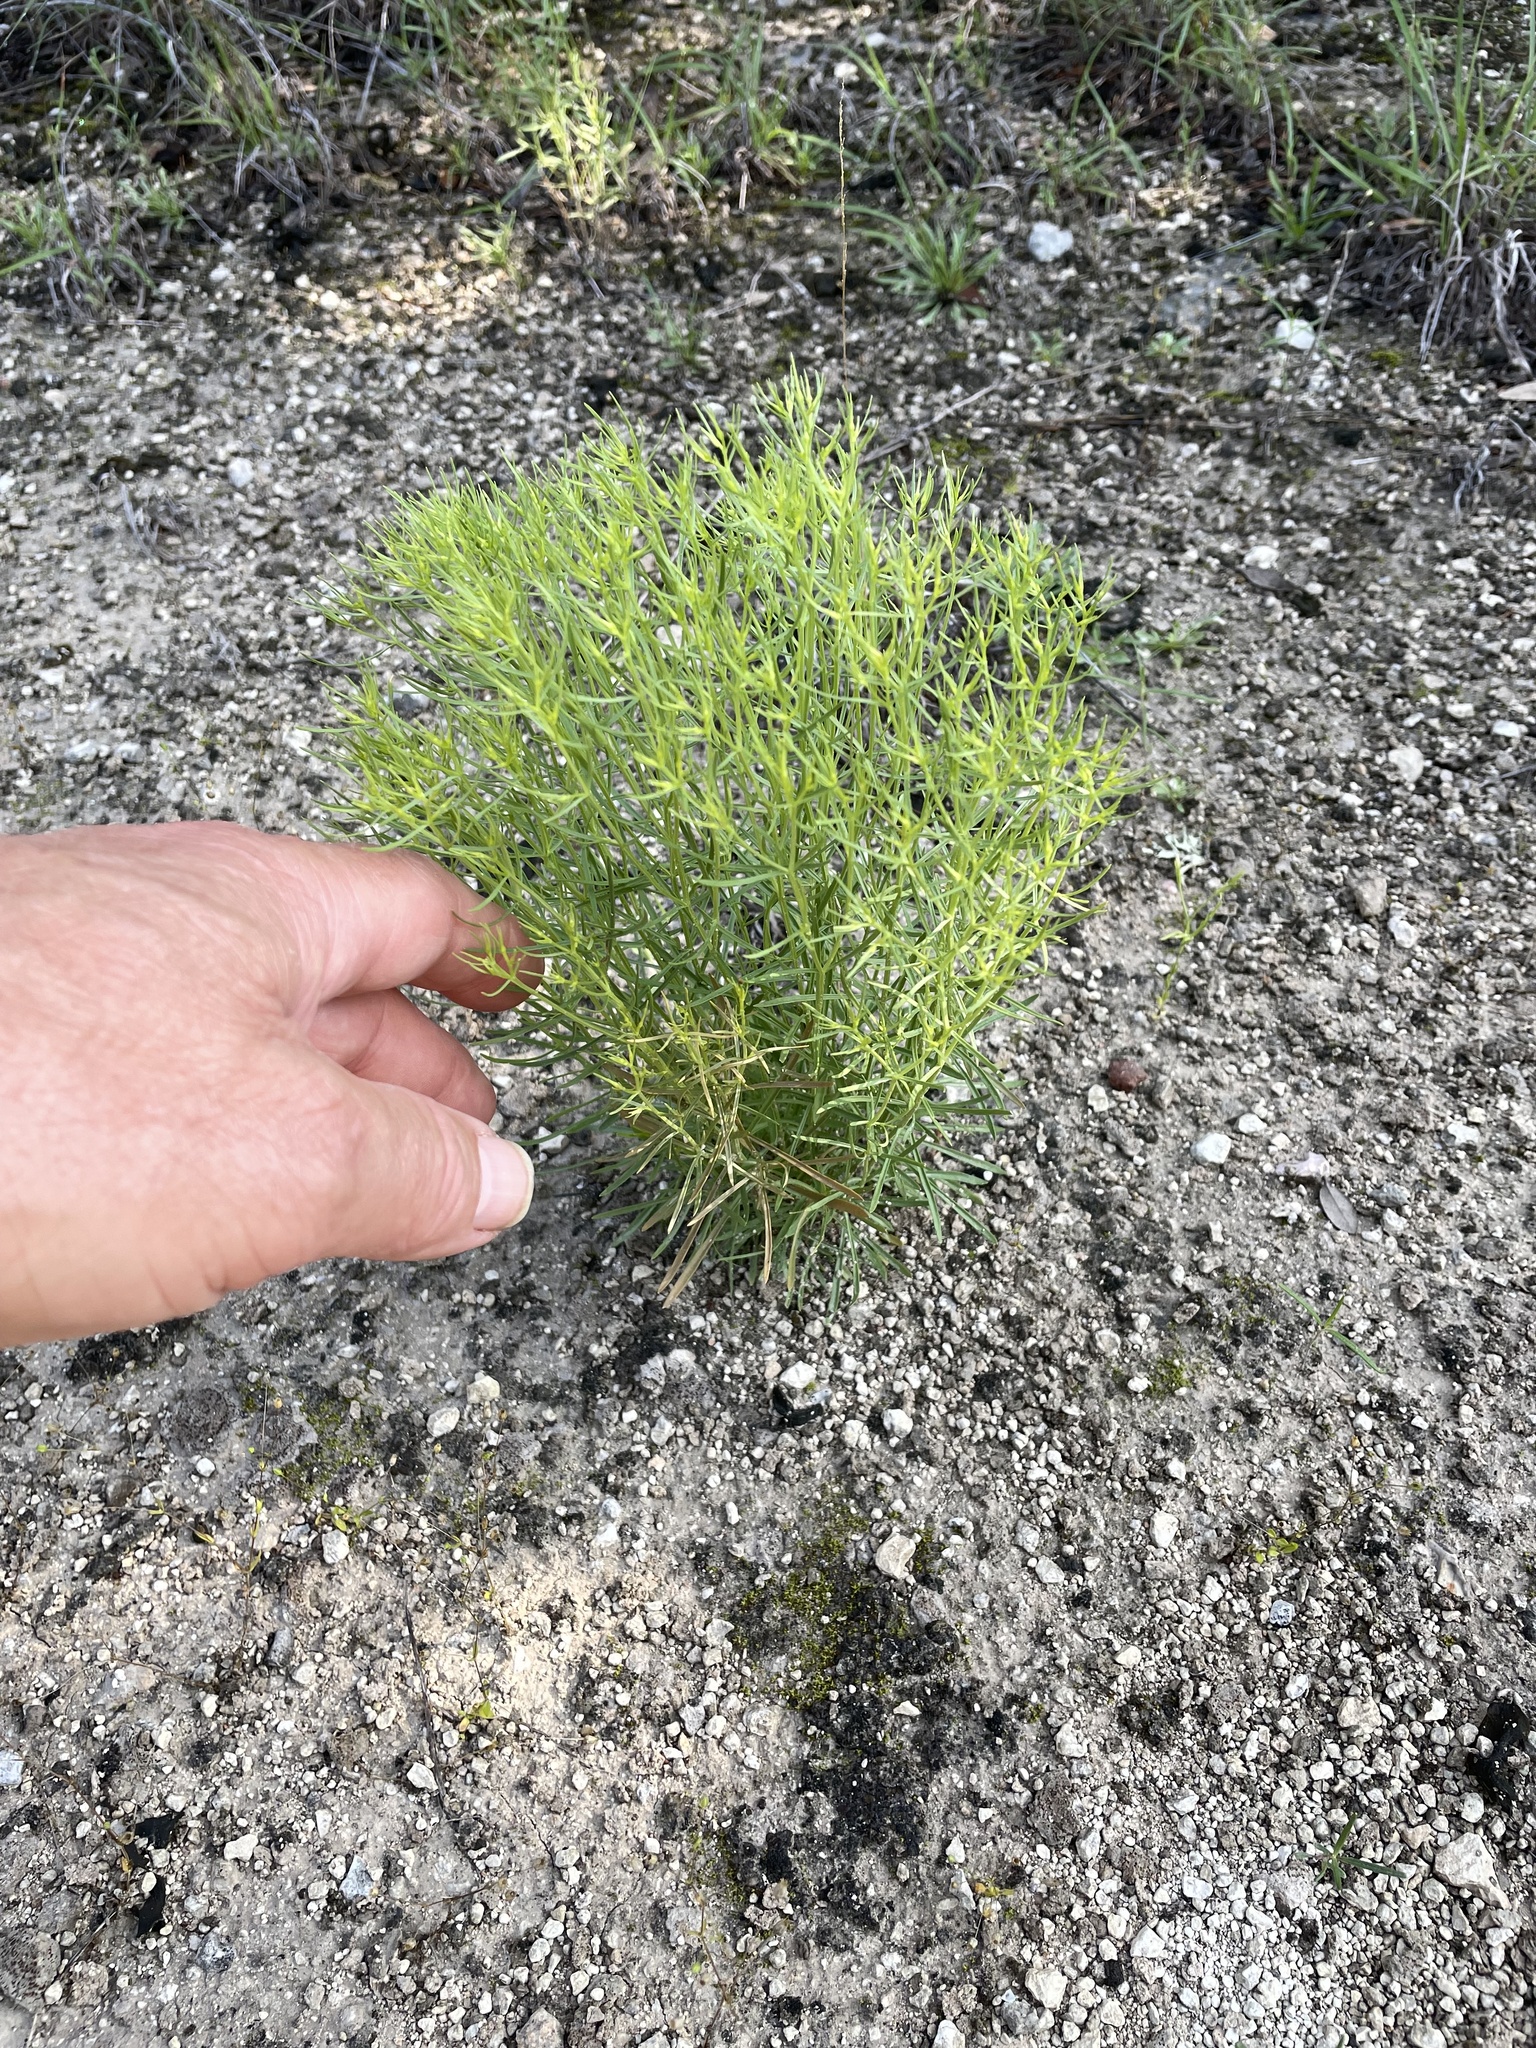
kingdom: Plantae
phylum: Tracheophyta
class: Magnoliopsida
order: Gentianales
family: Gentianaceae
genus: Zeltnera
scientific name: Zeltnera beyrichii
